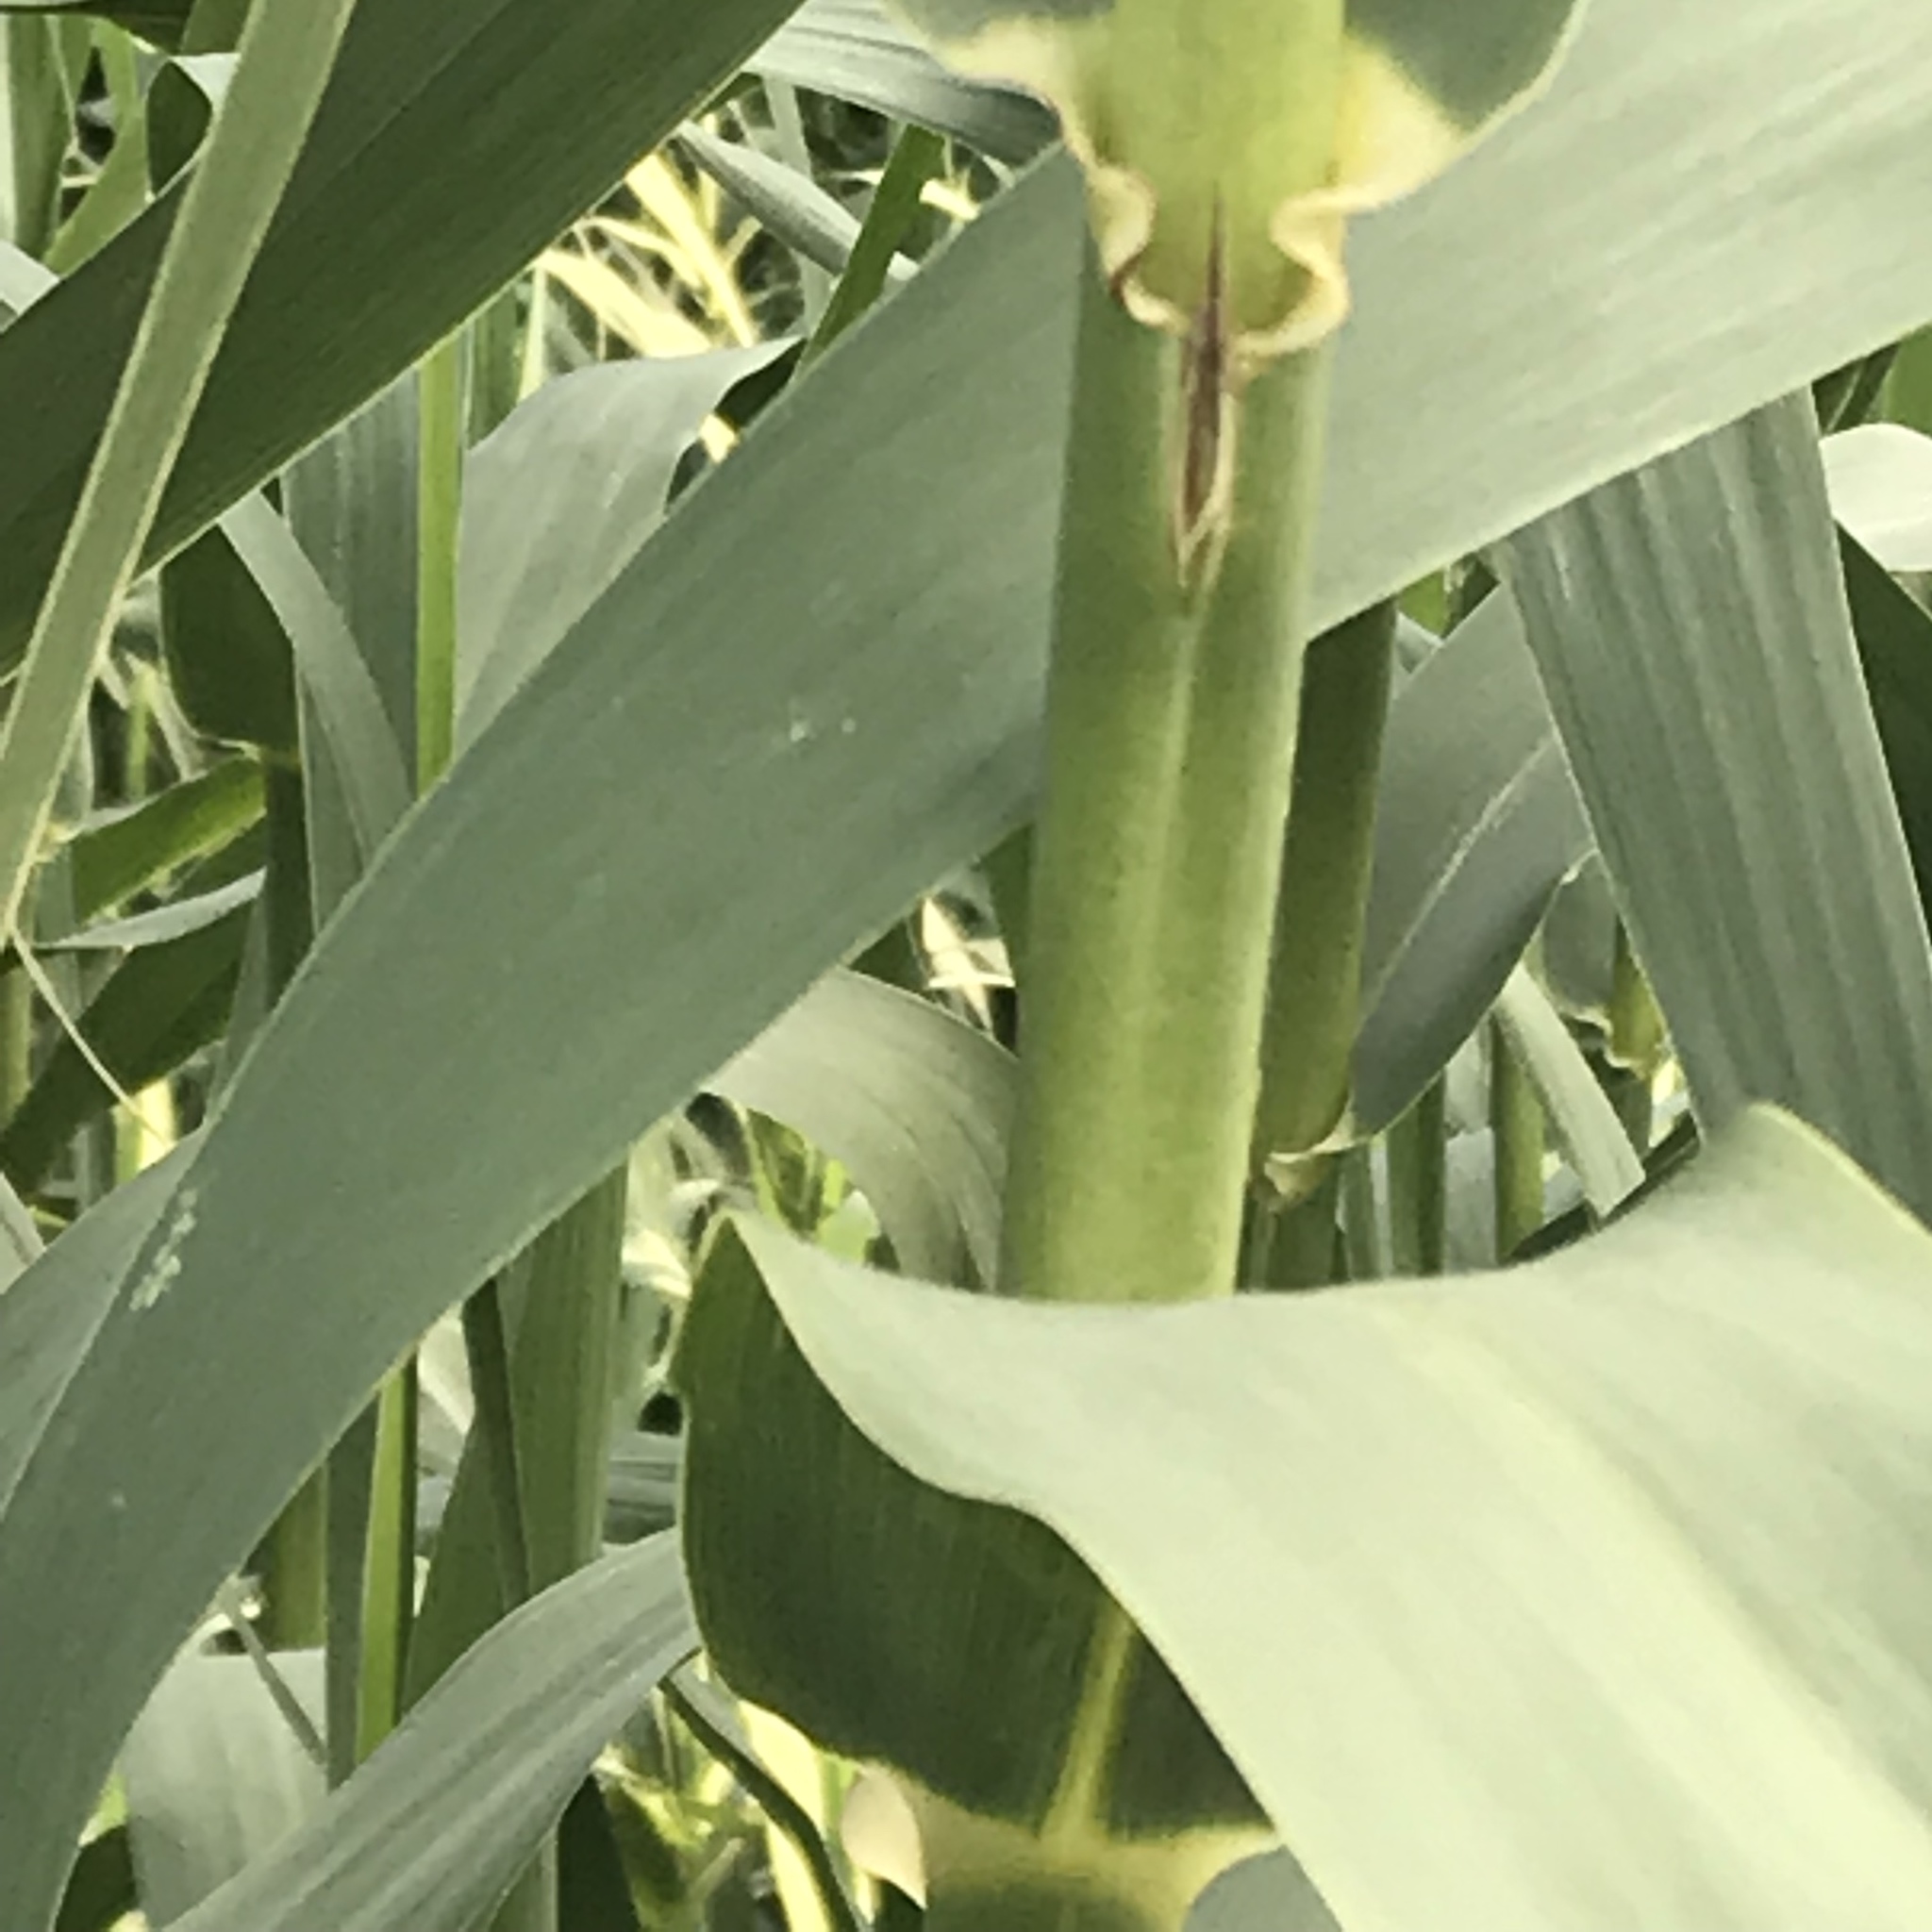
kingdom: Plantae
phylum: Tracheophyta
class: Liliopsida
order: Poales
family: Poaceae
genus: Arundo
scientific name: Arundo donax
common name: Giant reed
